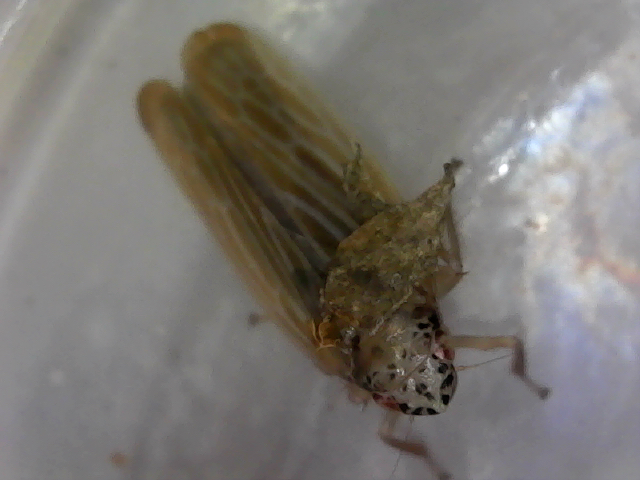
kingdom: Animalia
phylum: Arthropoda
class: Insecta
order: Hemiptera
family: Cicadellidae
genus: Pagaronia
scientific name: Pagaronia triunata
